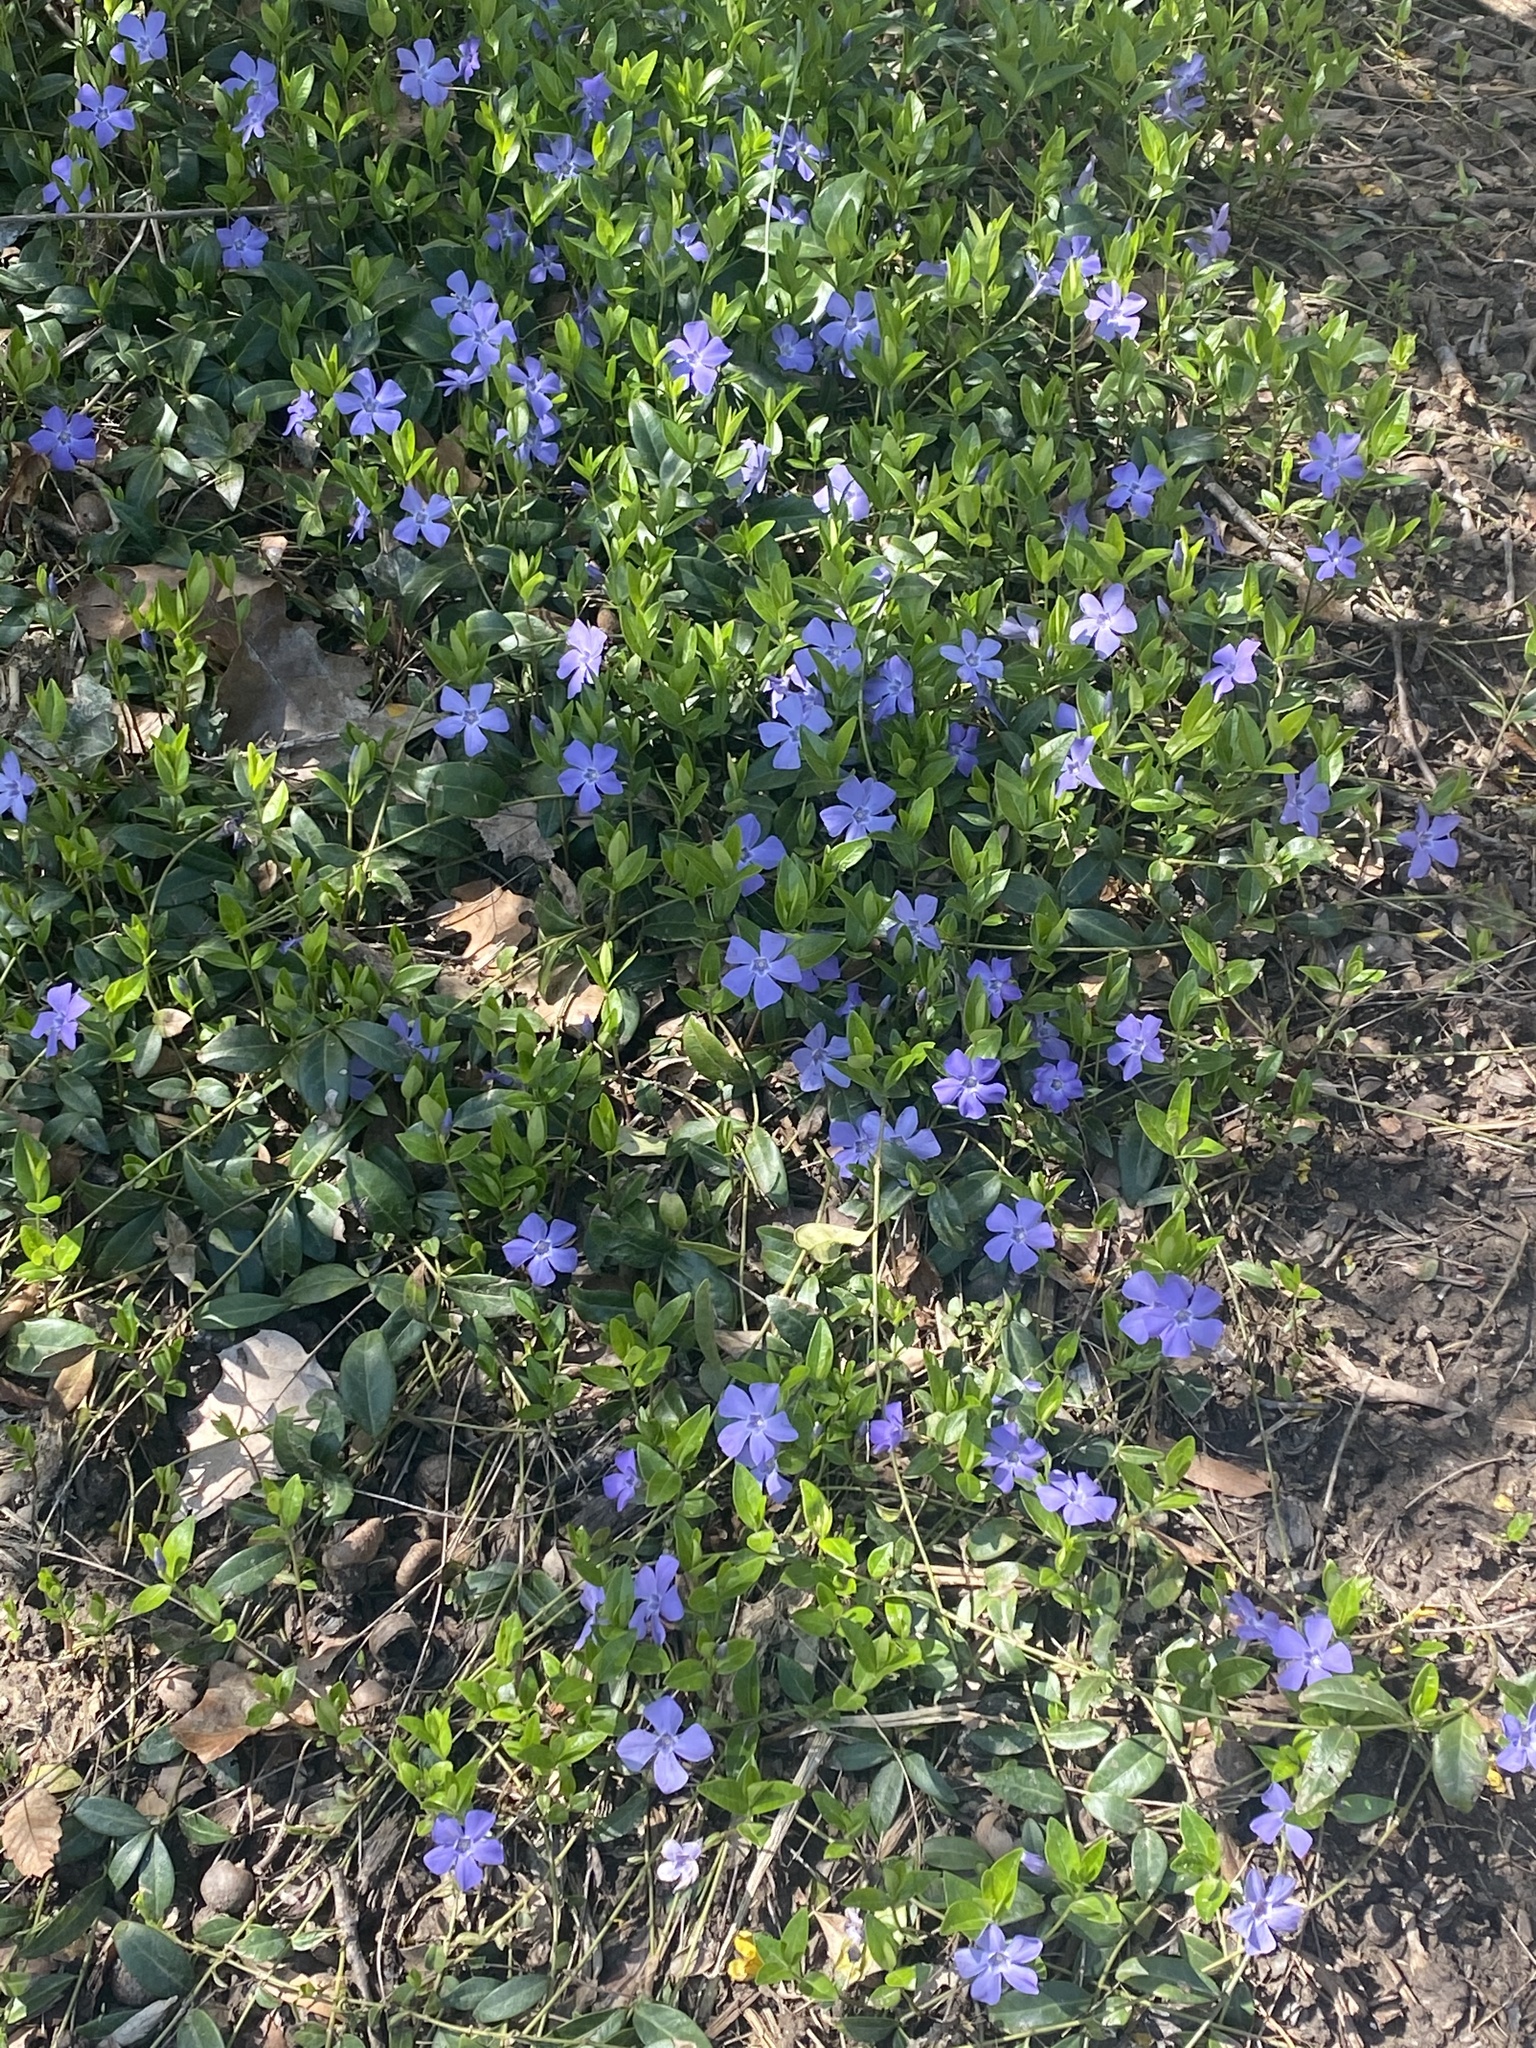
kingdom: Plantae
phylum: Tracheophyta
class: Magnoliopsida
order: Gentianales
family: Apocynaceae
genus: Vinca
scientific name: Vinca minor
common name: Lesser periwinkle
